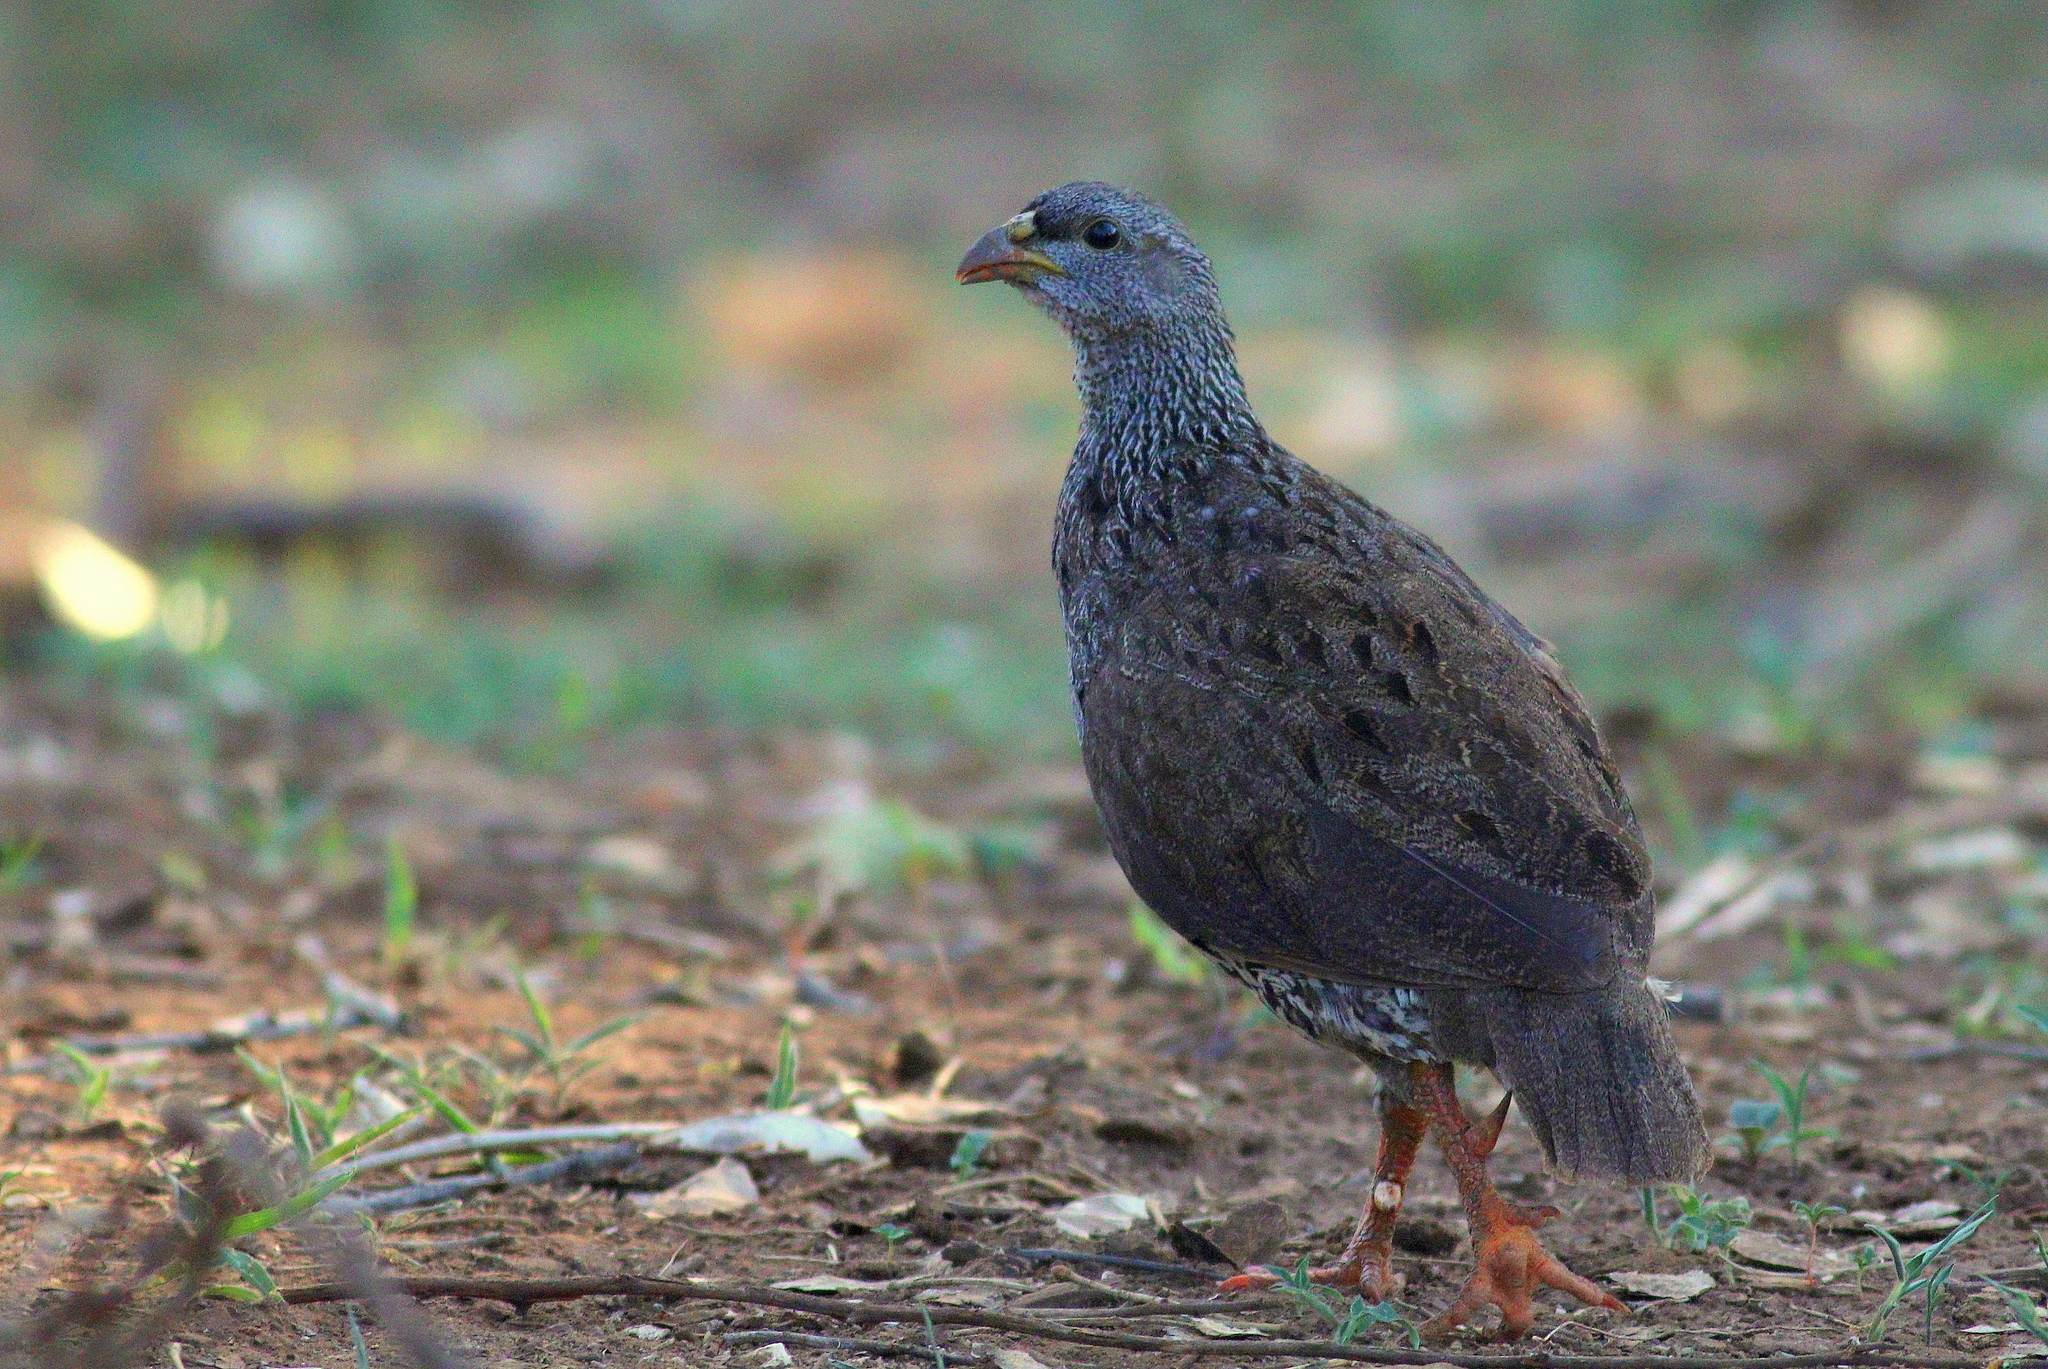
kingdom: Animalia
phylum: Chordata
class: Aves
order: Galliformes
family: Phasianidae
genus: Pternistis
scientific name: Pternistis natalensis
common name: Natal spurfowl
